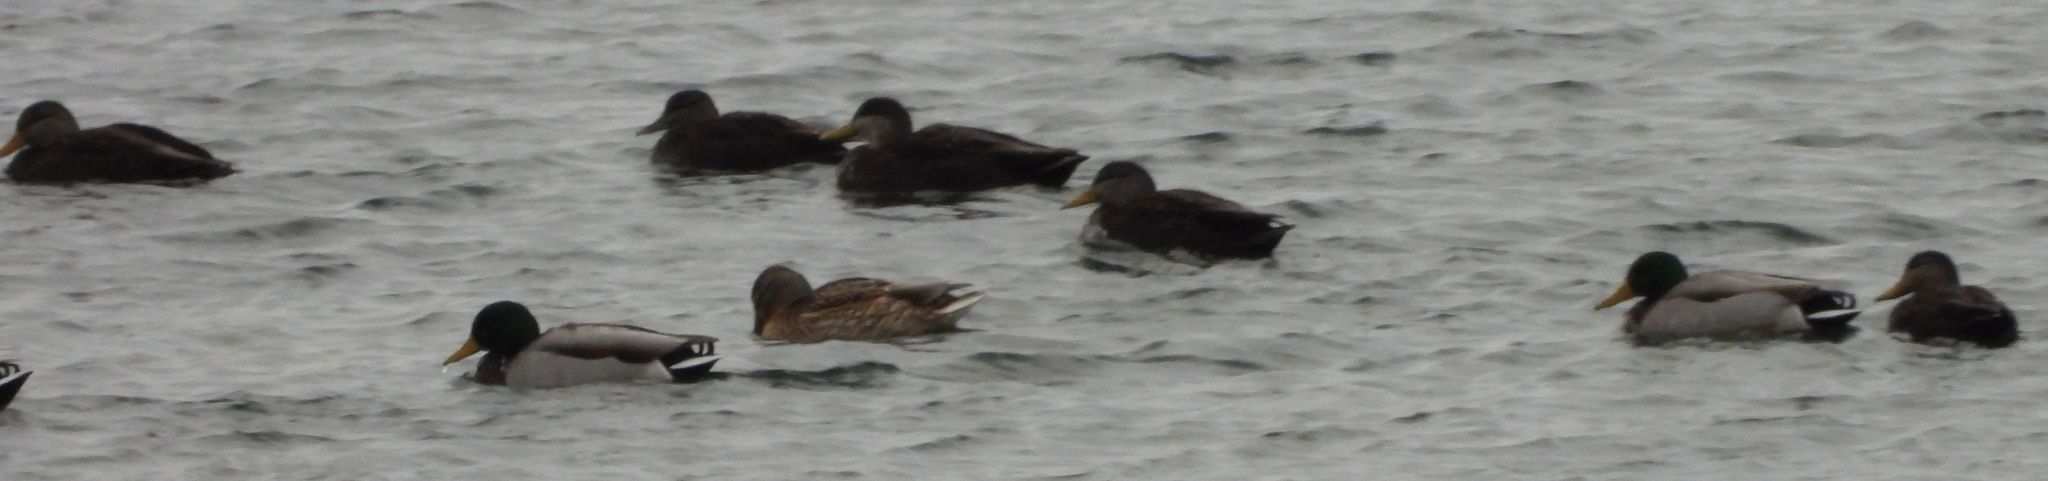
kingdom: Animalia
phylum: Chordata
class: Aves
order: Anseriformes
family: Anatidae
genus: Anas
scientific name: Anas platyrhynchos
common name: Mallard
